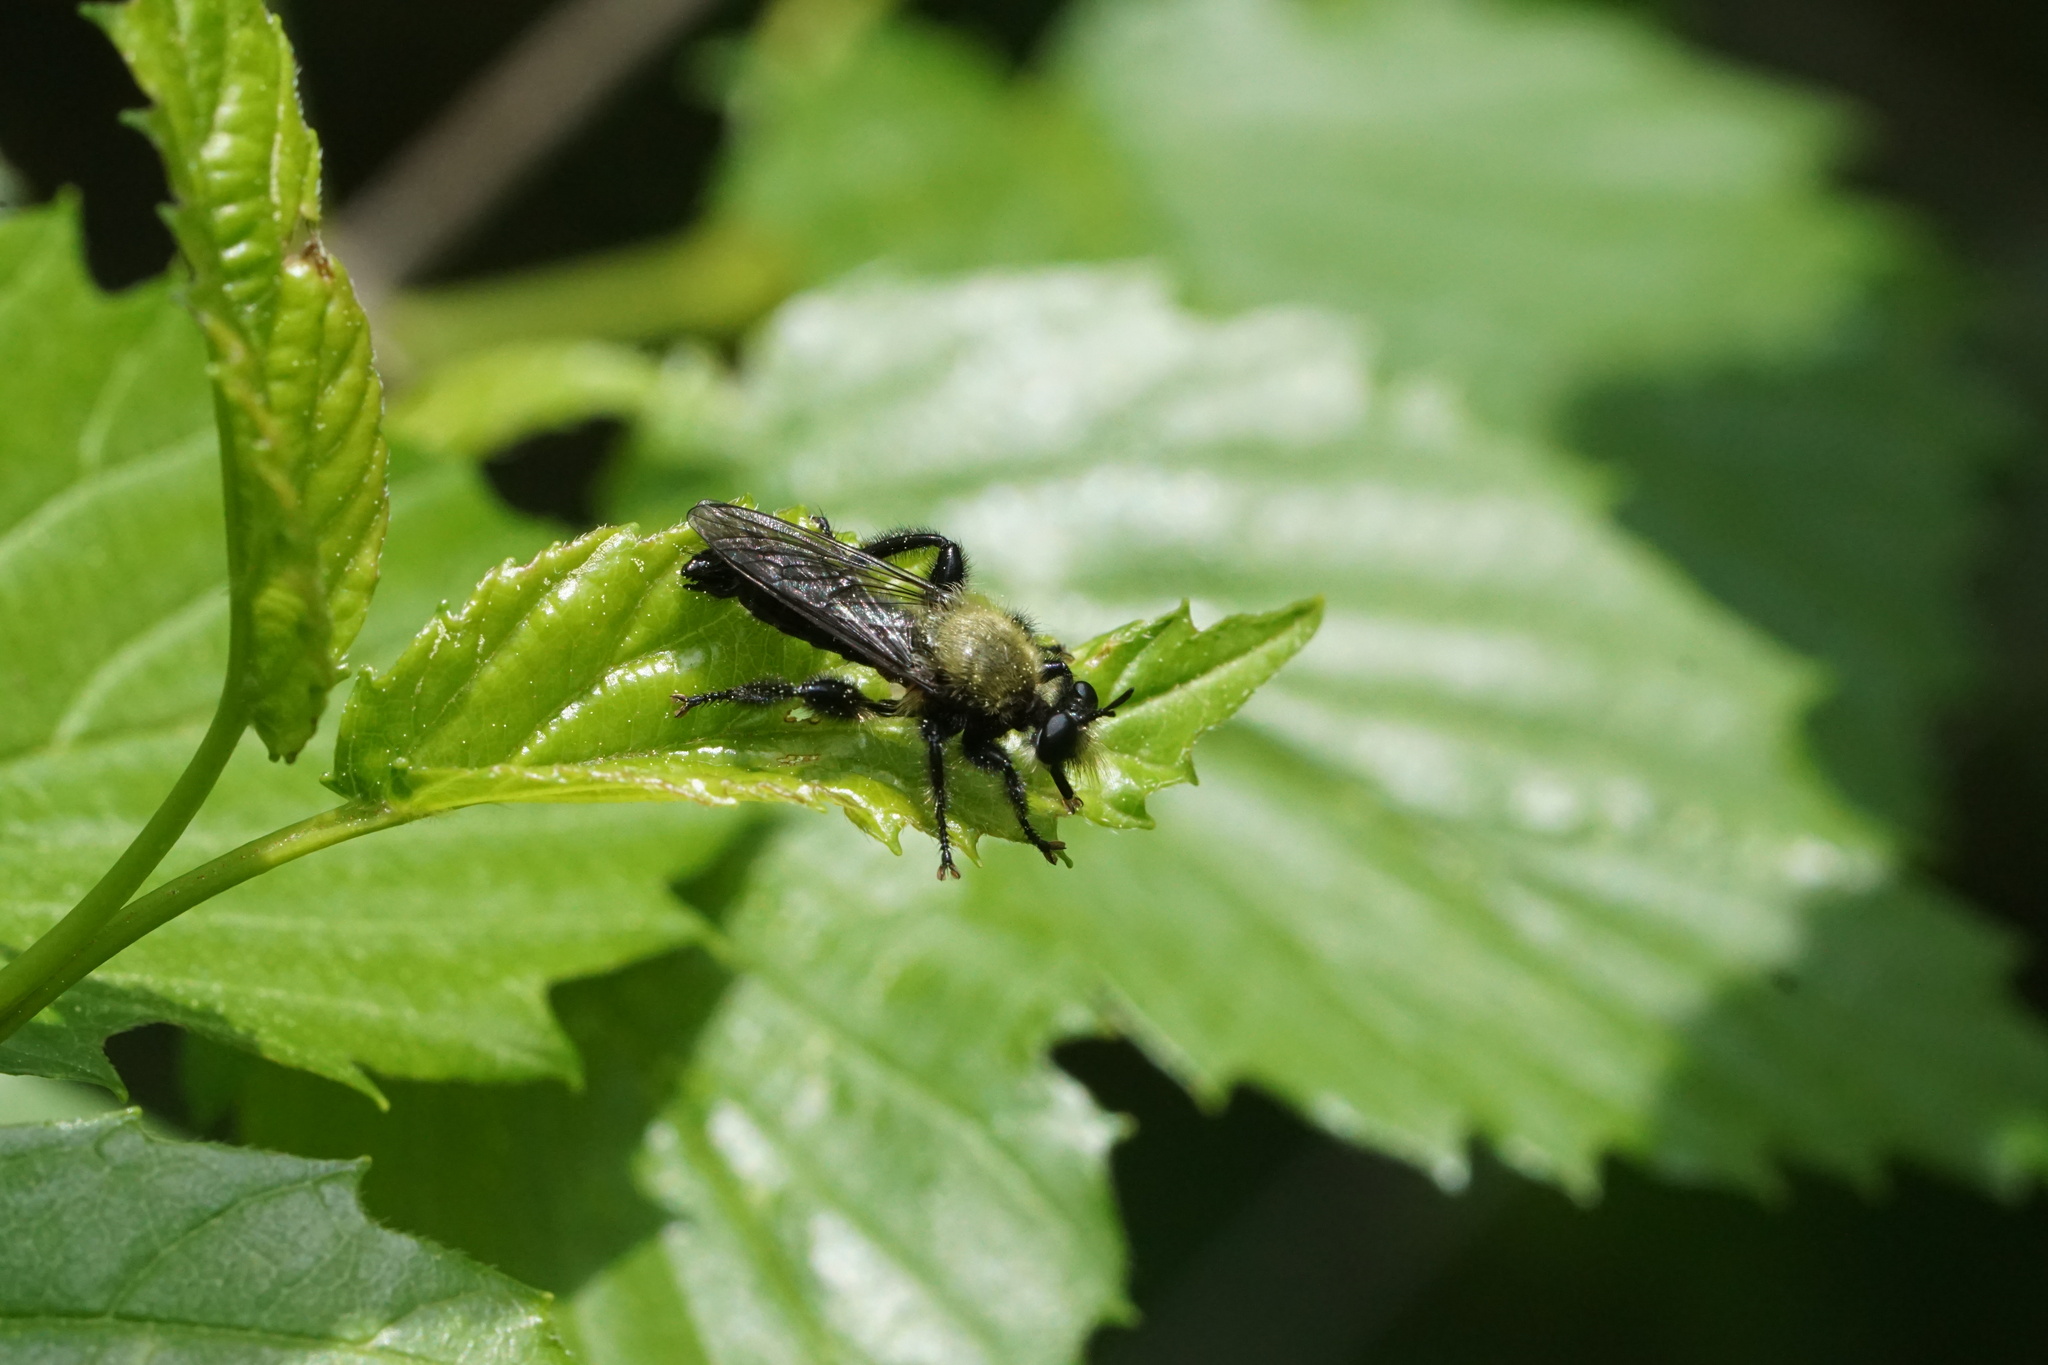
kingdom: Animalia
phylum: Arthropoda
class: Insecta
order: Diptera
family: Asilidae
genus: Laphria
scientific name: Laphria flavicollis
